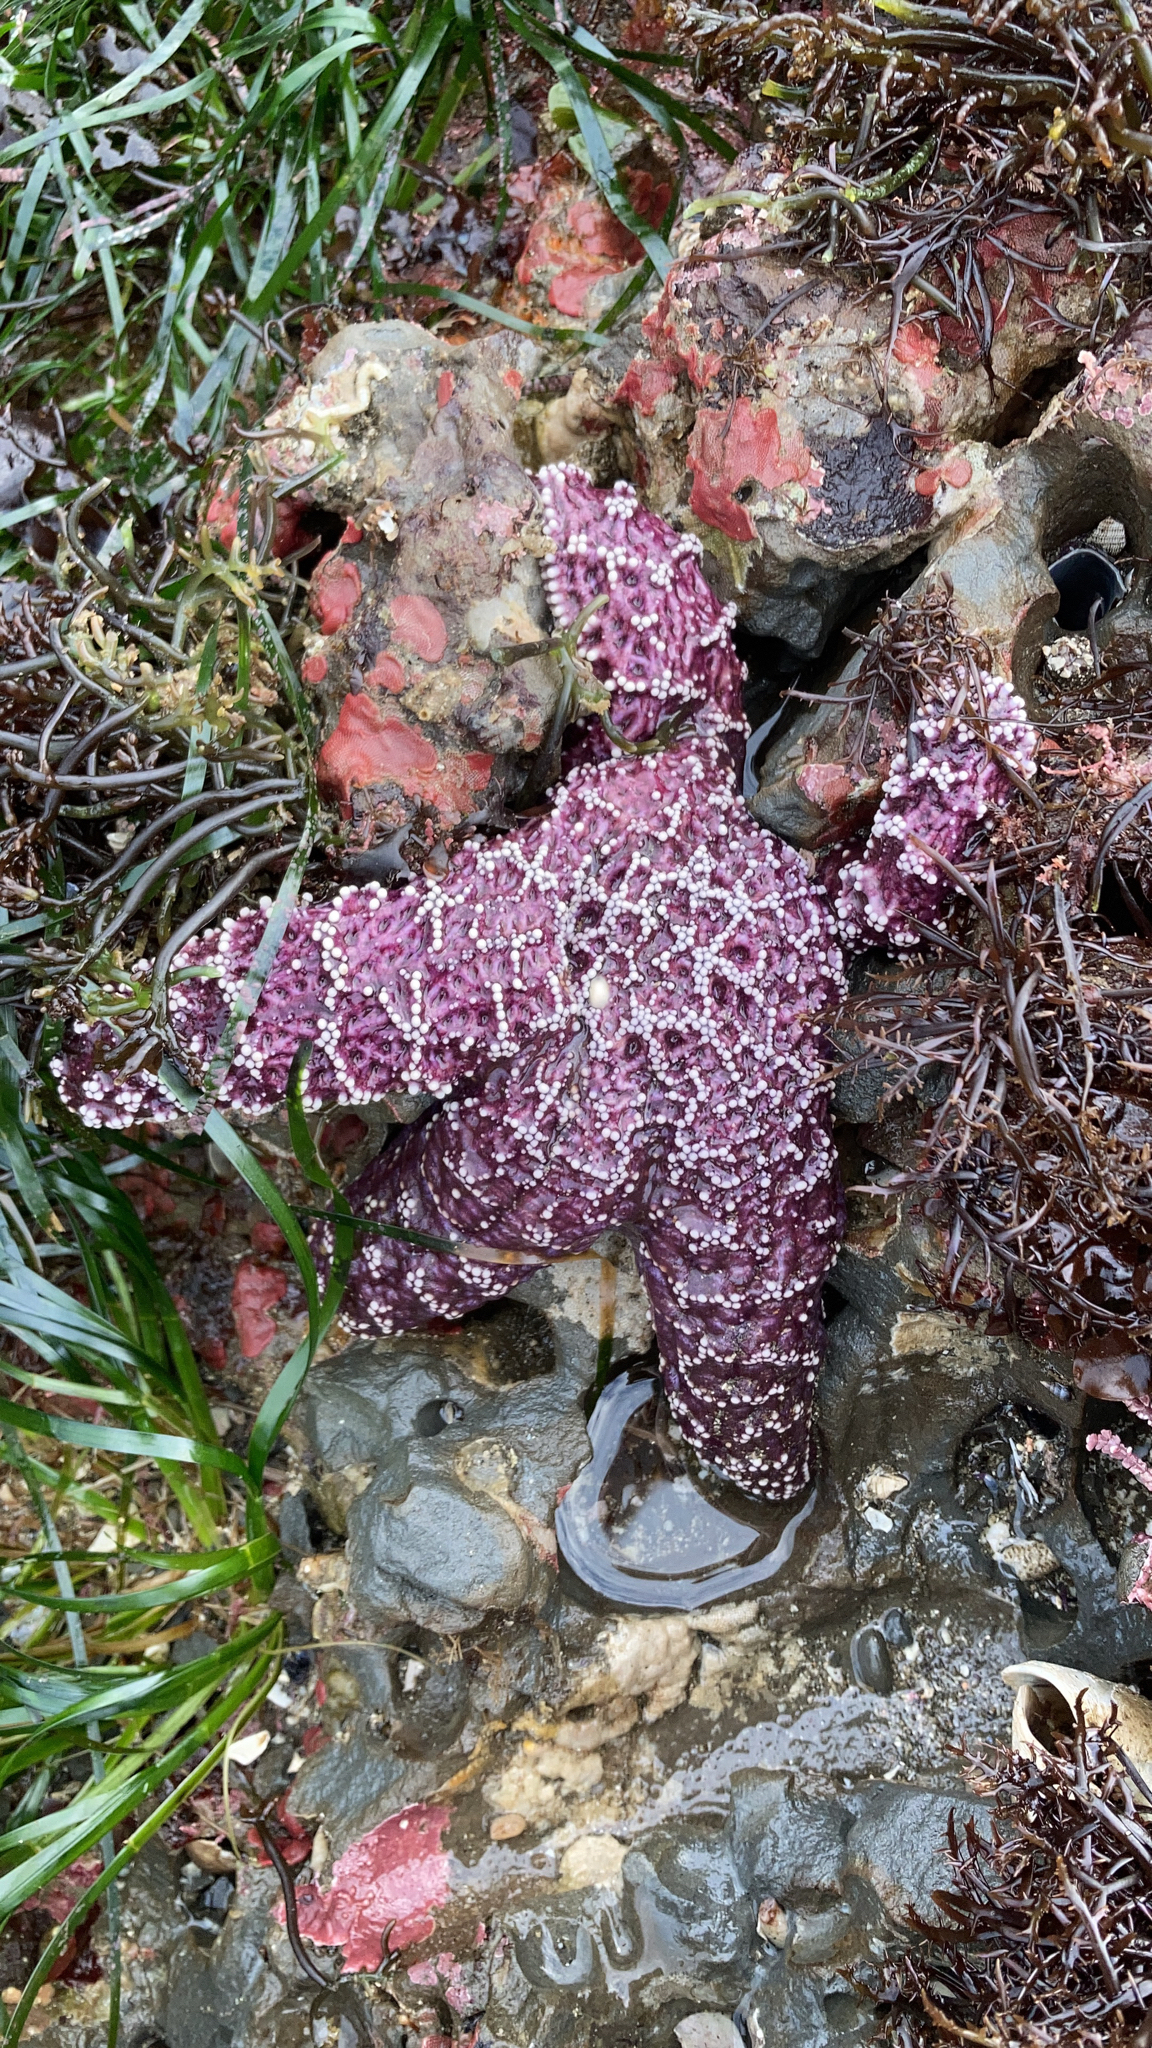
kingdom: Animalia
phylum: Echinodermata
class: Asteroidea
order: Forcipulatida
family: Asteriidae
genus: Pisaster
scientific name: Pisaster ochraceus
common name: Ochre stars
